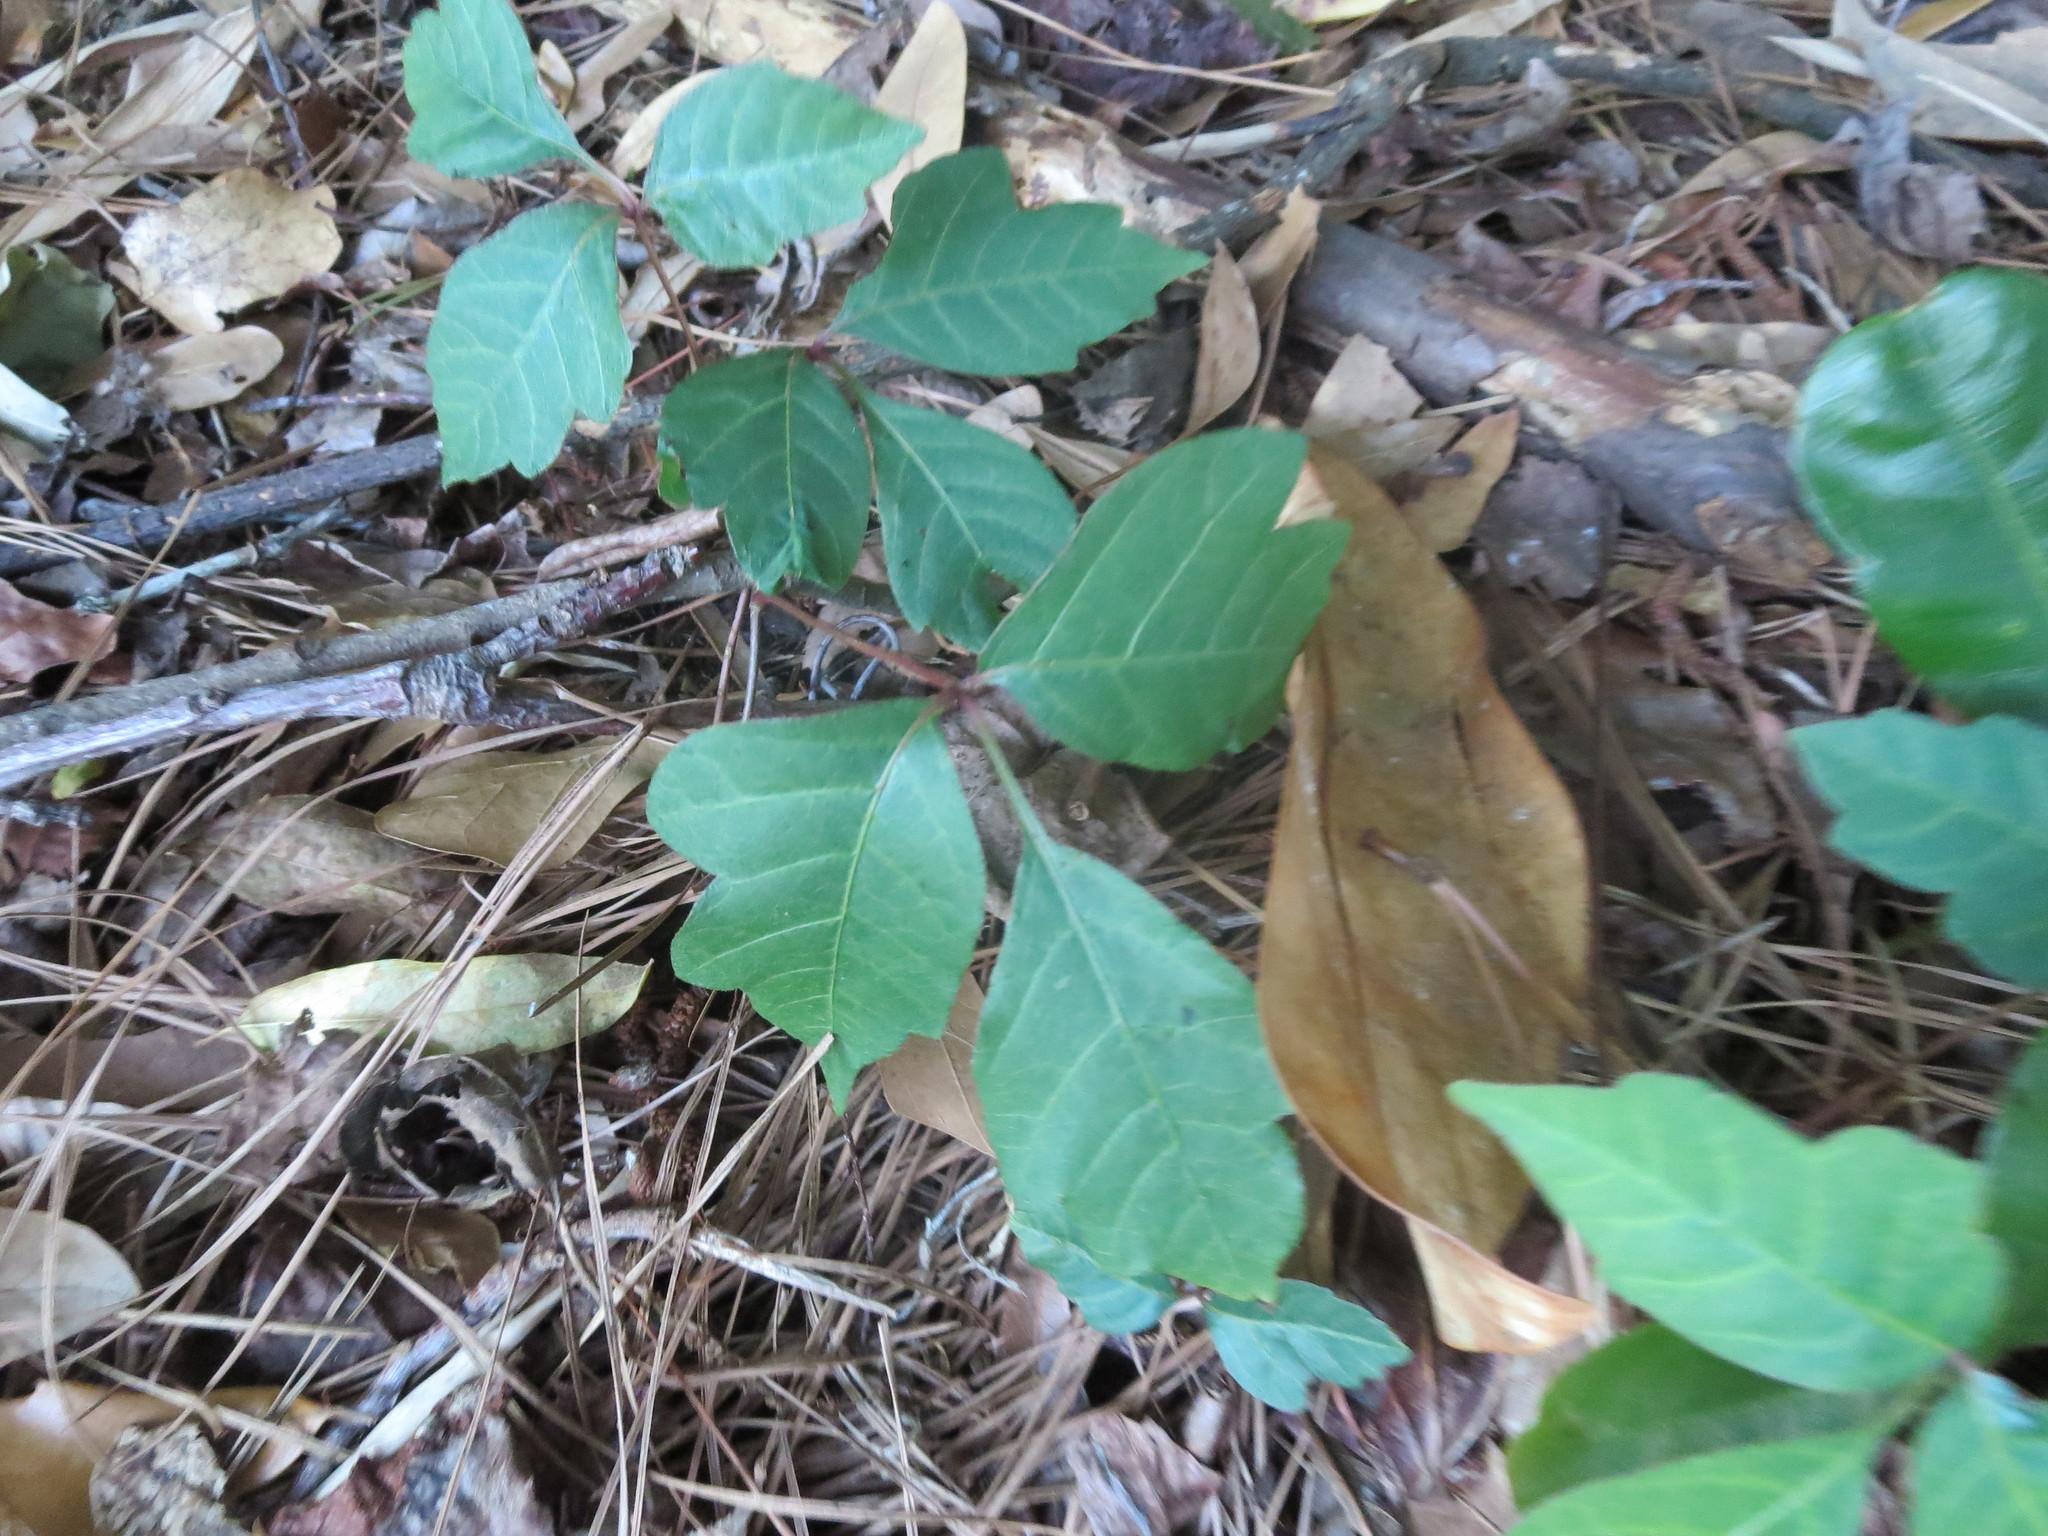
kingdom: Plantae
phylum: Tracheophyta
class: Magnoliopsida
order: Sapindales
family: Anacardiaceae
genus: Toxicodendron
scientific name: Toxicodendron radicans
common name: Poison ivy
